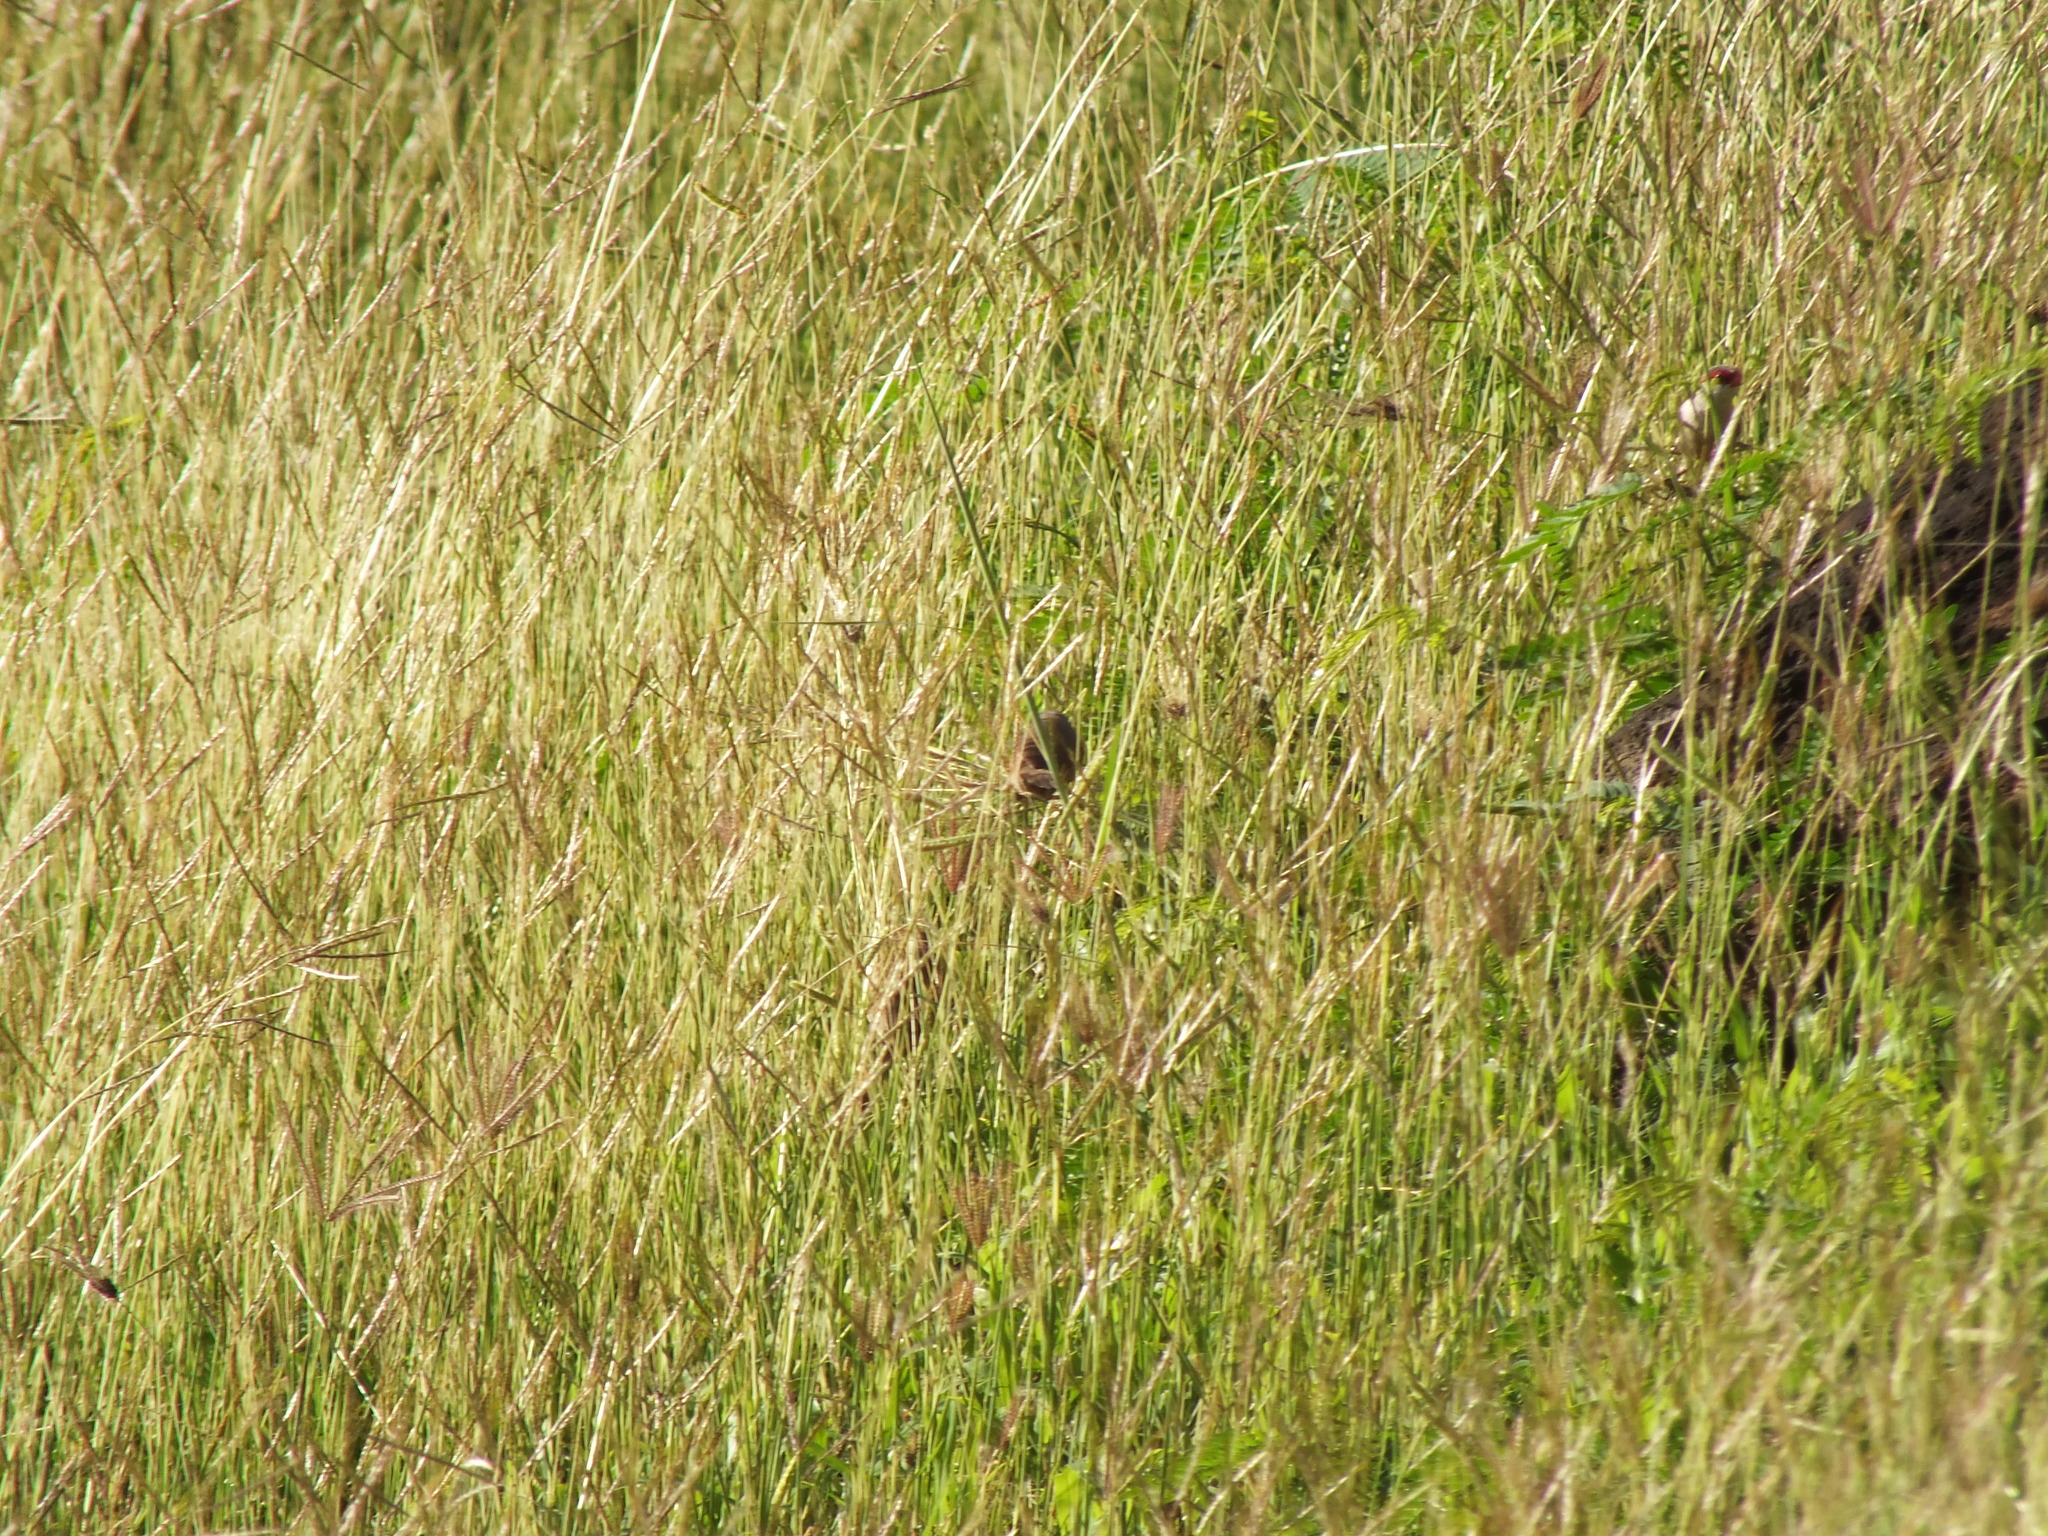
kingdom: Animalia
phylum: Chordata
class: Aves
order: Passeriformes
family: Estrildidae
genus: Estrilda
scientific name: Estrilda astrild
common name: Common waxbill
